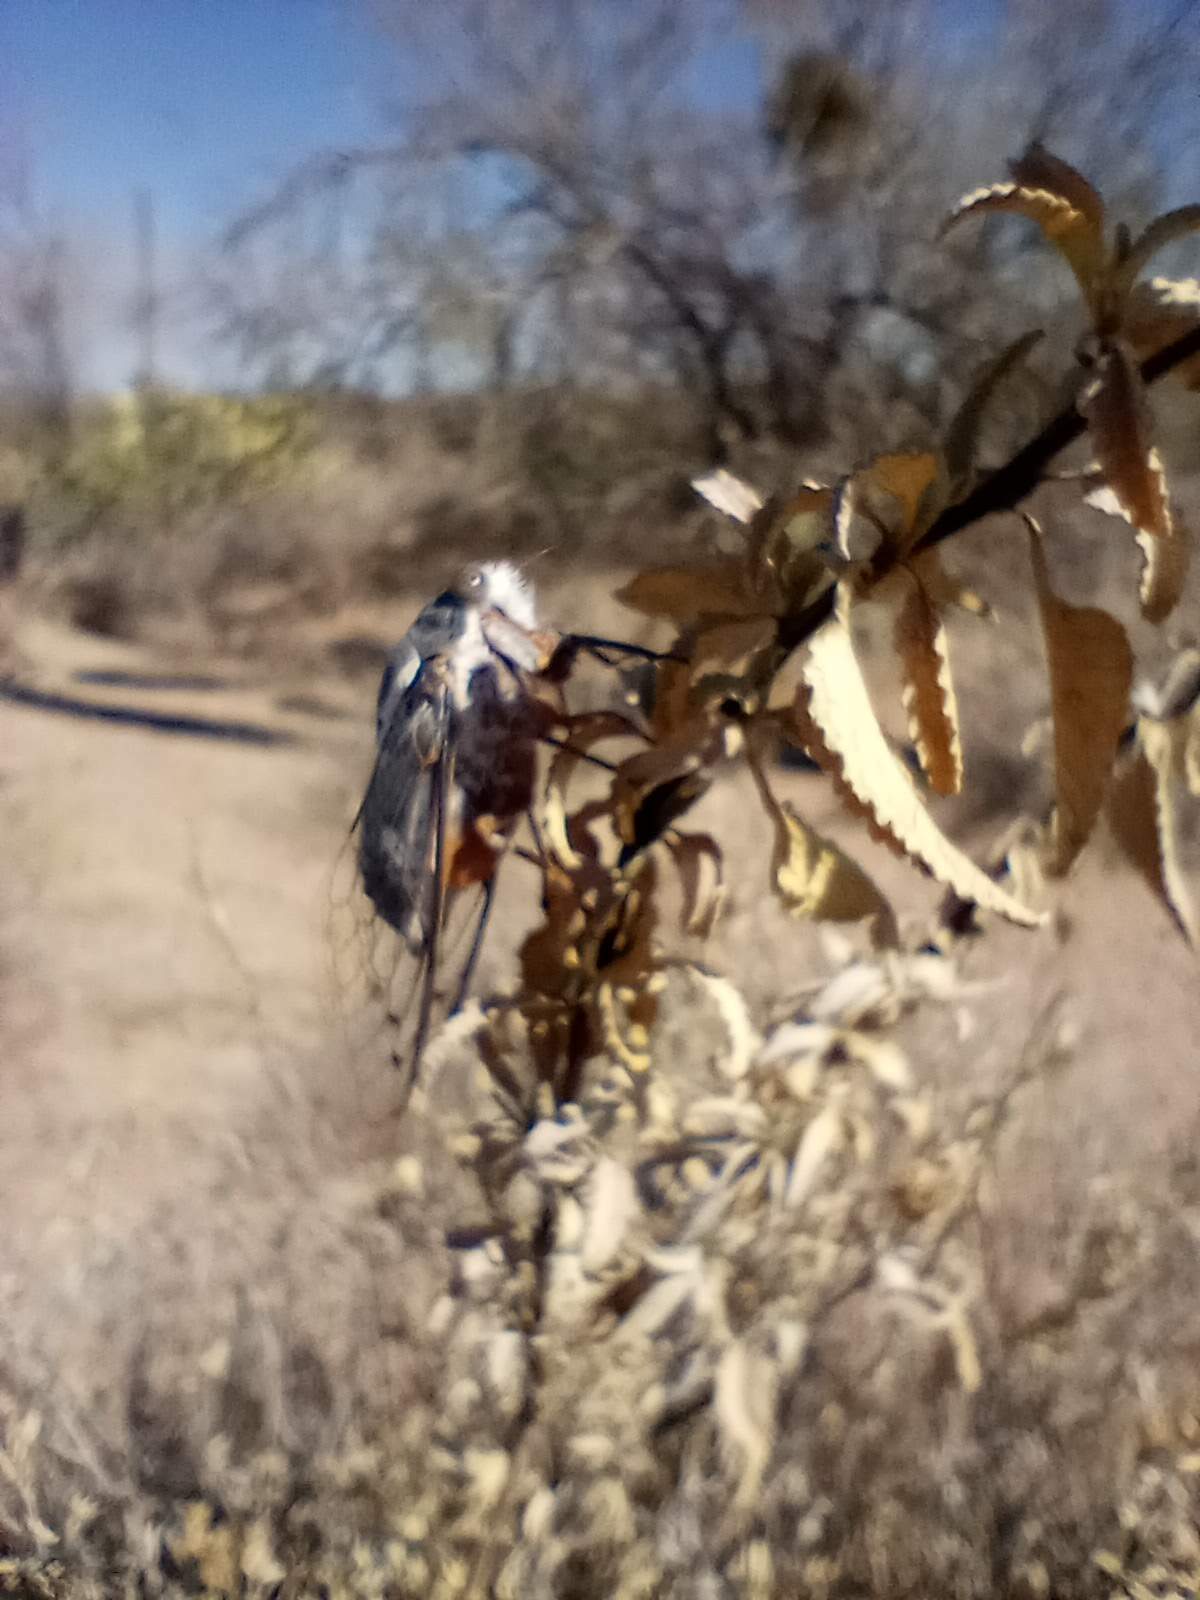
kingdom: Animalia
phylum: Arthropoda
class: Insecta
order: Hemiptera
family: Cicadidae
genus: Cacama
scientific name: Cacama moorei
